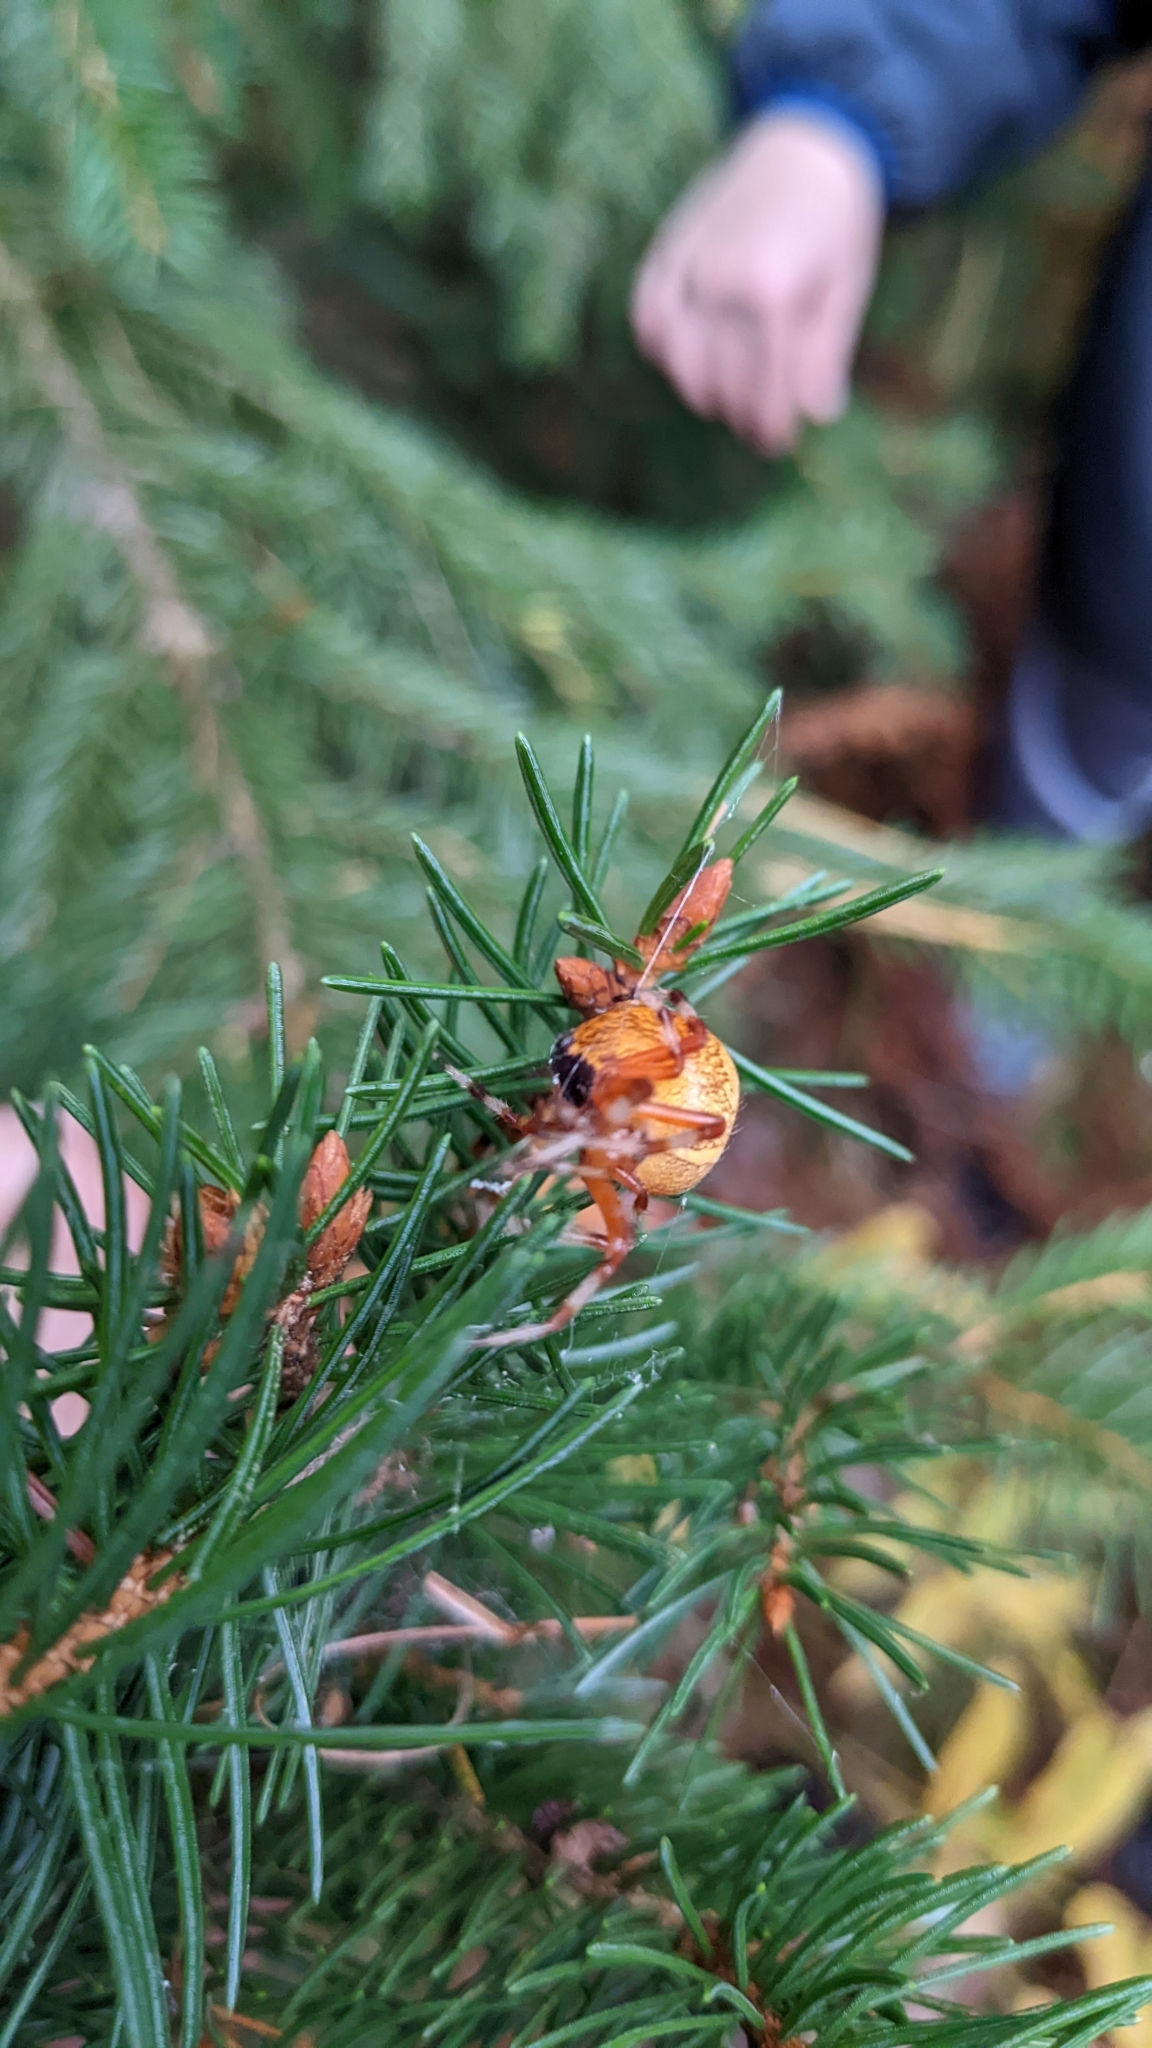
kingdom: Animalia
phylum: Arthropoda
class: Arachnida
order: Araneae
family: Araneidae
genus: Araneus
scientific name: Araneus marmoreus
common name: Marbled orbweaver
